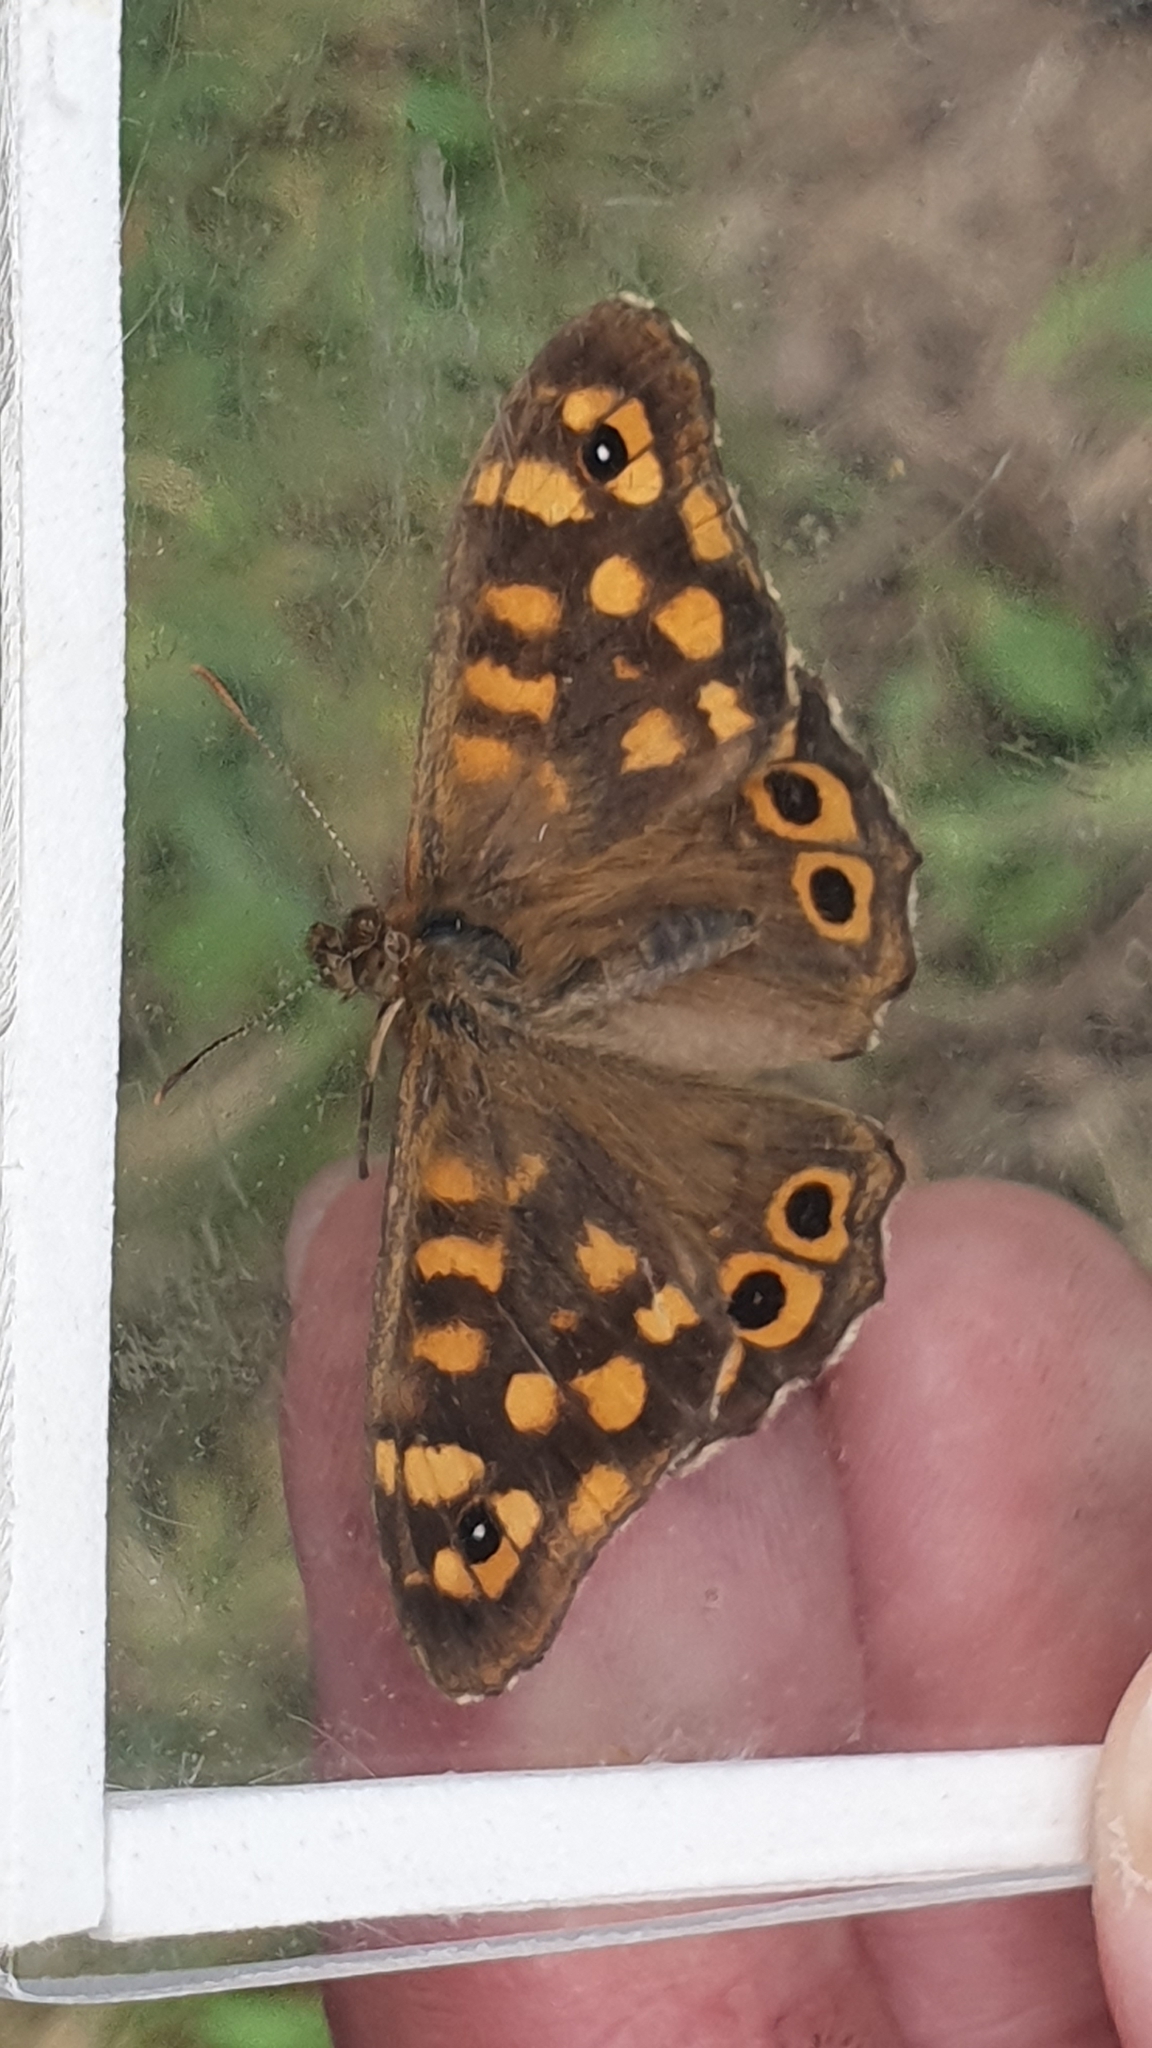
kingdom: Animalia
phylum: Arthropoda
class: Insecta
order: Lepidoptera
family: Nymphalidae
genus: Pararge
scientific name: Pararge aegeria
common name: Speckled wood
